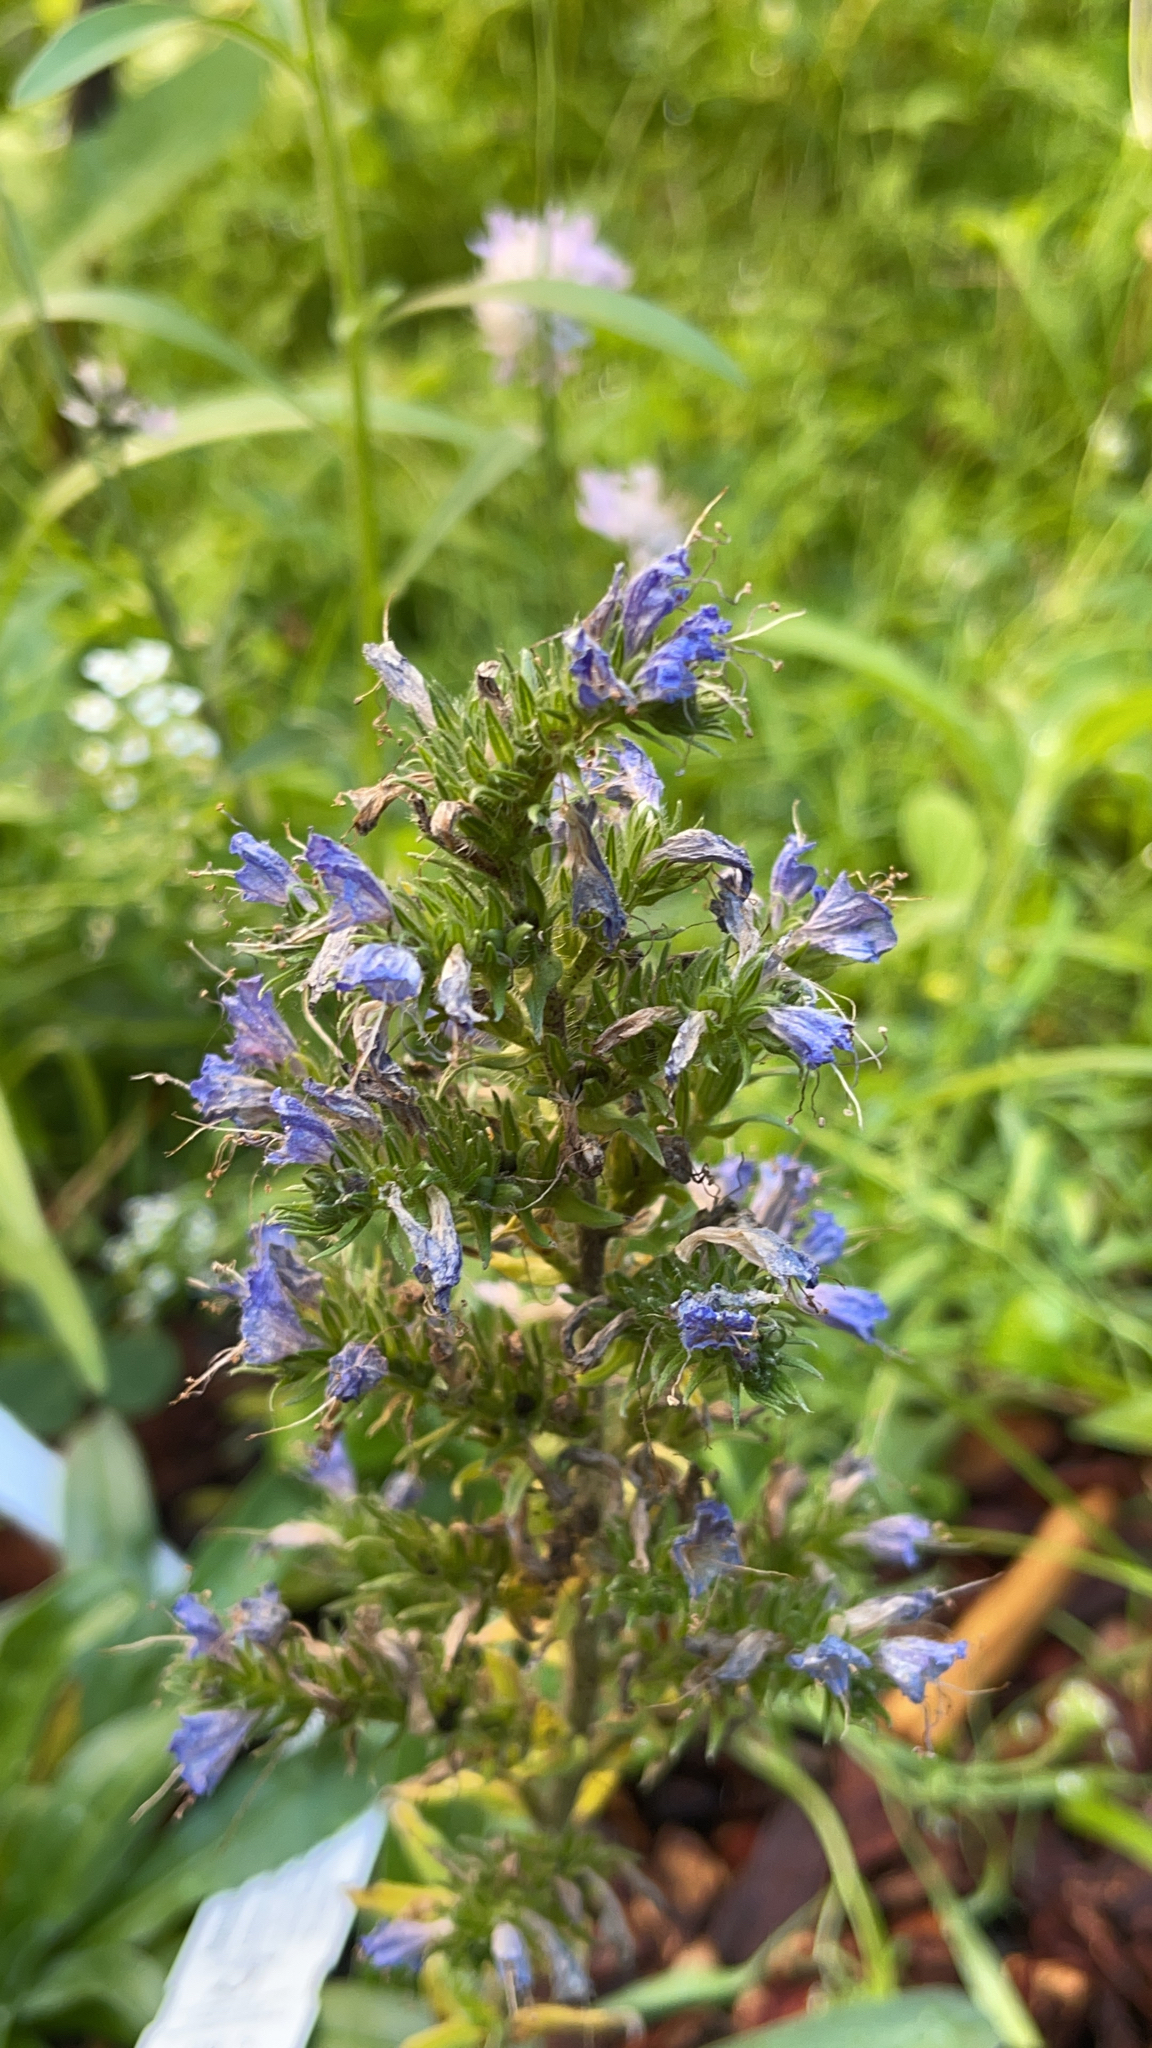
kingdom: Plantae
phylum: Tracheophyta
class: Magnoliopsida
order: Boraginales
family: Boraginaceae
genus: Echium
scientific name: Echium vulgare
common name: Common viper's bugloss
